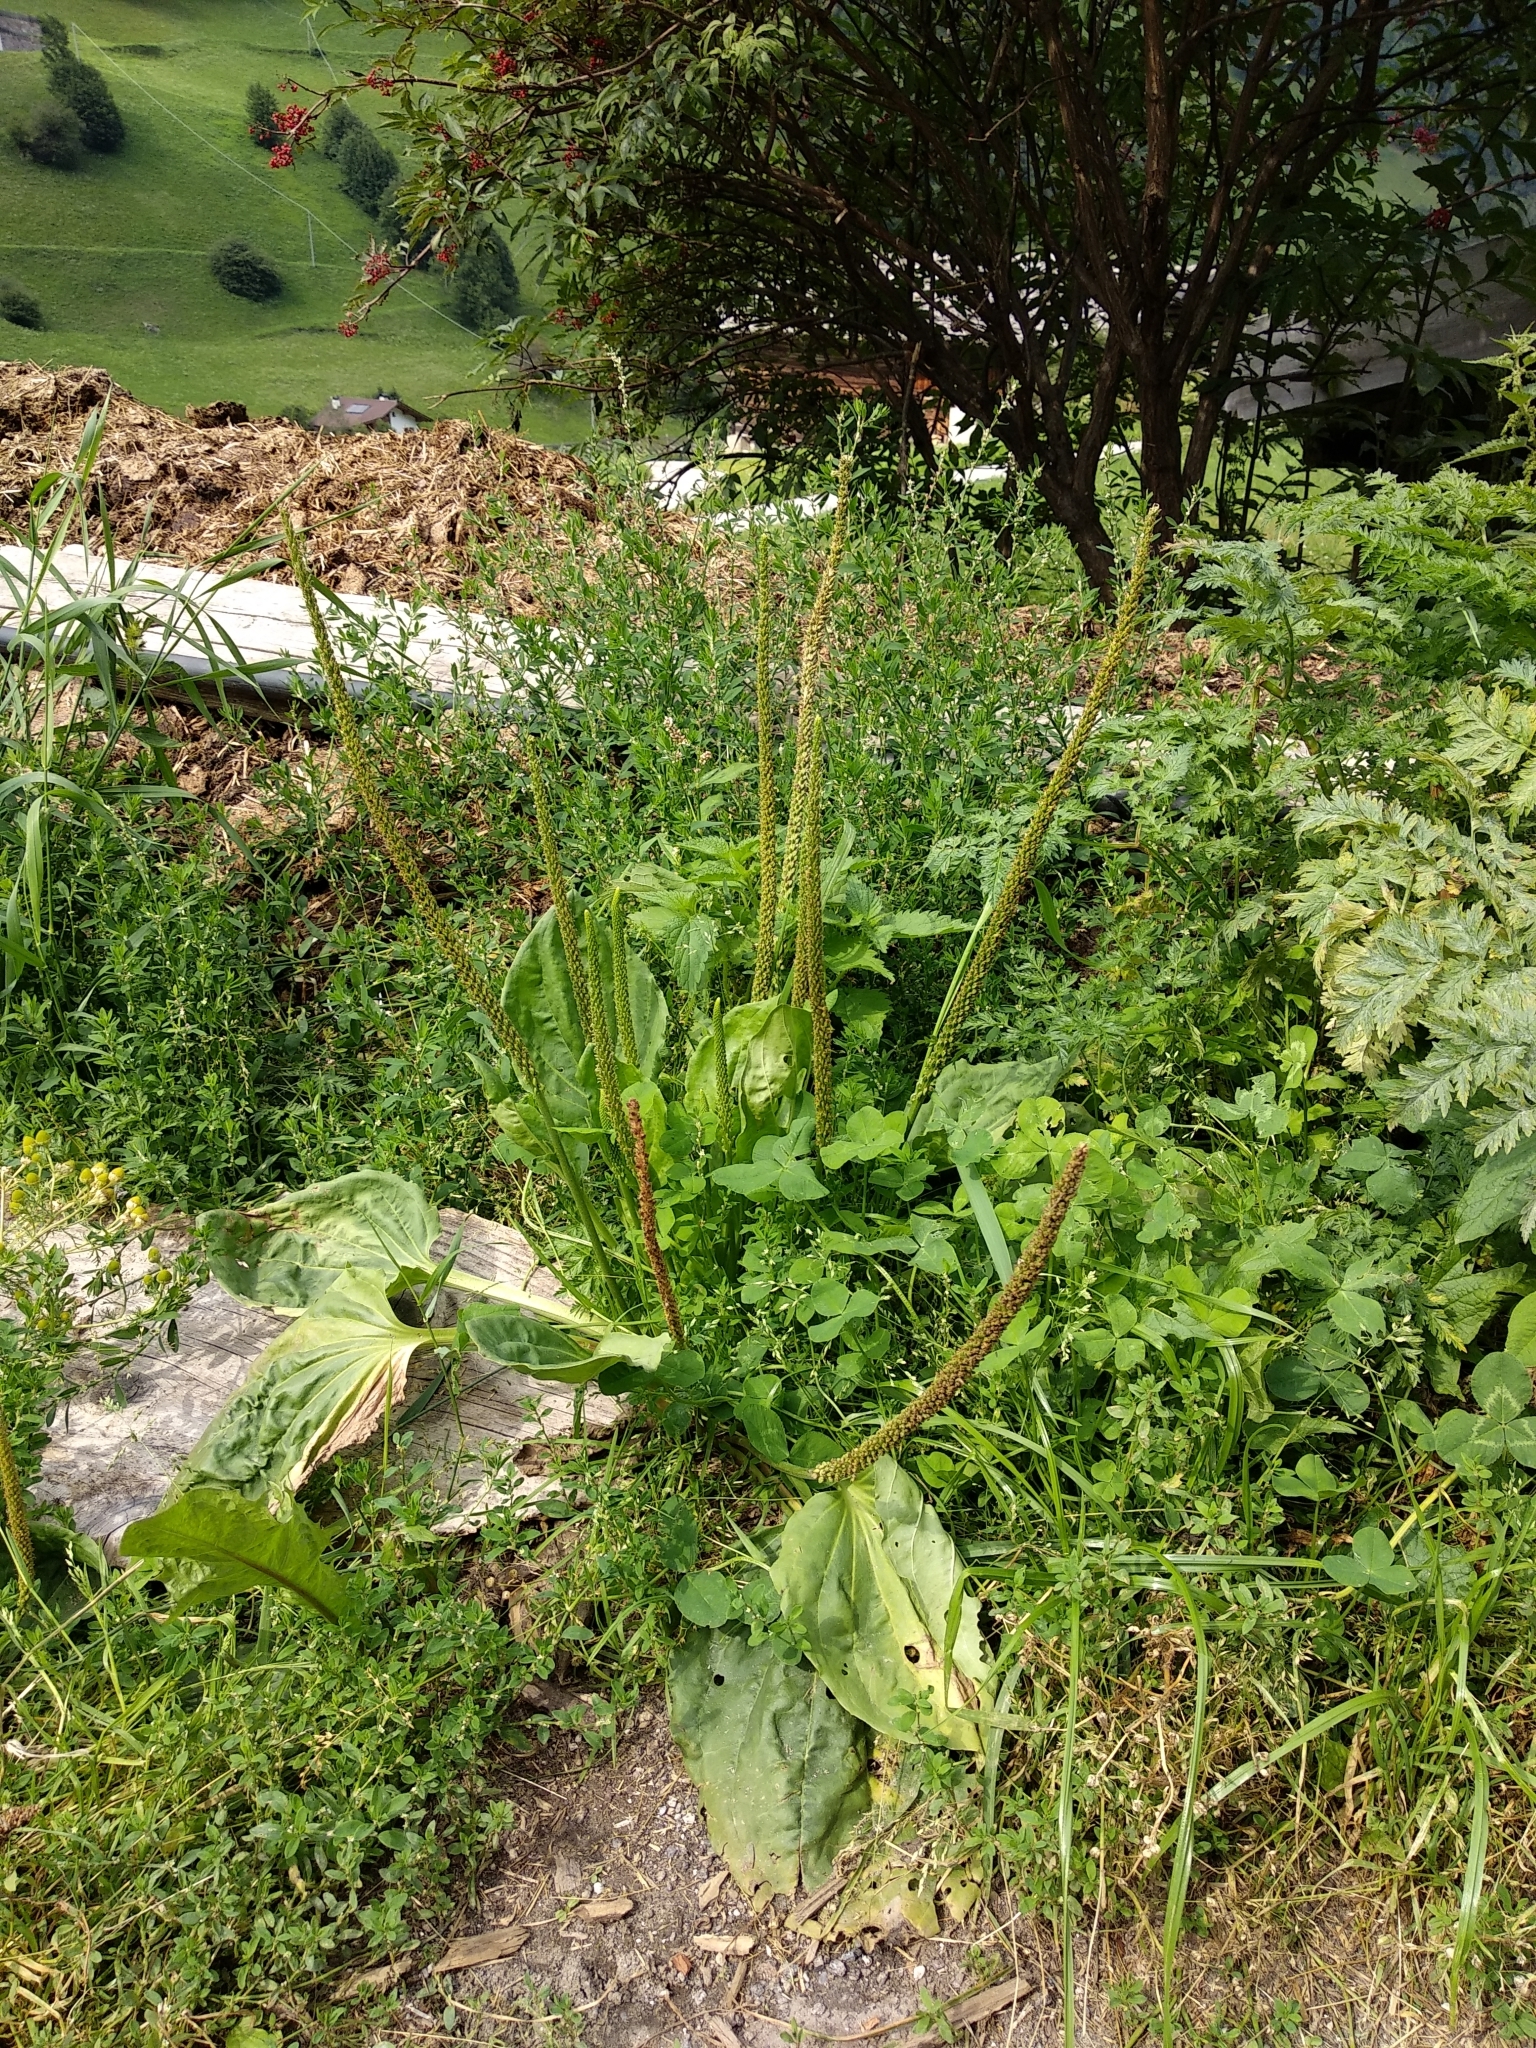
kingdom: Plantae
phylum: Tracheophyta
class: Magnoliopsida
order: Lamiales
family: Plantaginaceae
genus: Plantago
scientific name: Plantago major
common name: Common plantain
